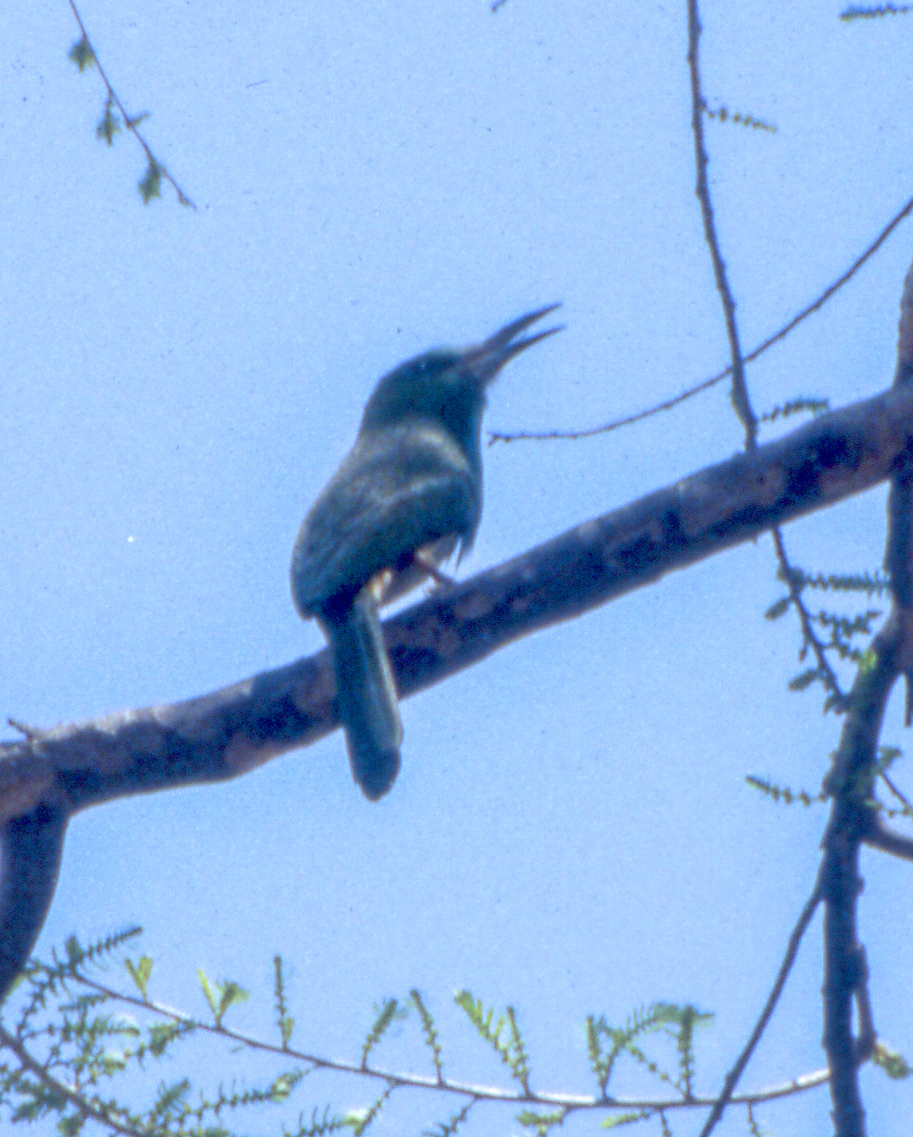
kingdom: Animalia
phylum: Chordata
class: Aves
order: Coraciiformes
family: Meropidae
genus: Nyctyornis
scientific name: Nyctyornis athertoni
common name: Blue-bearded bee-eater
